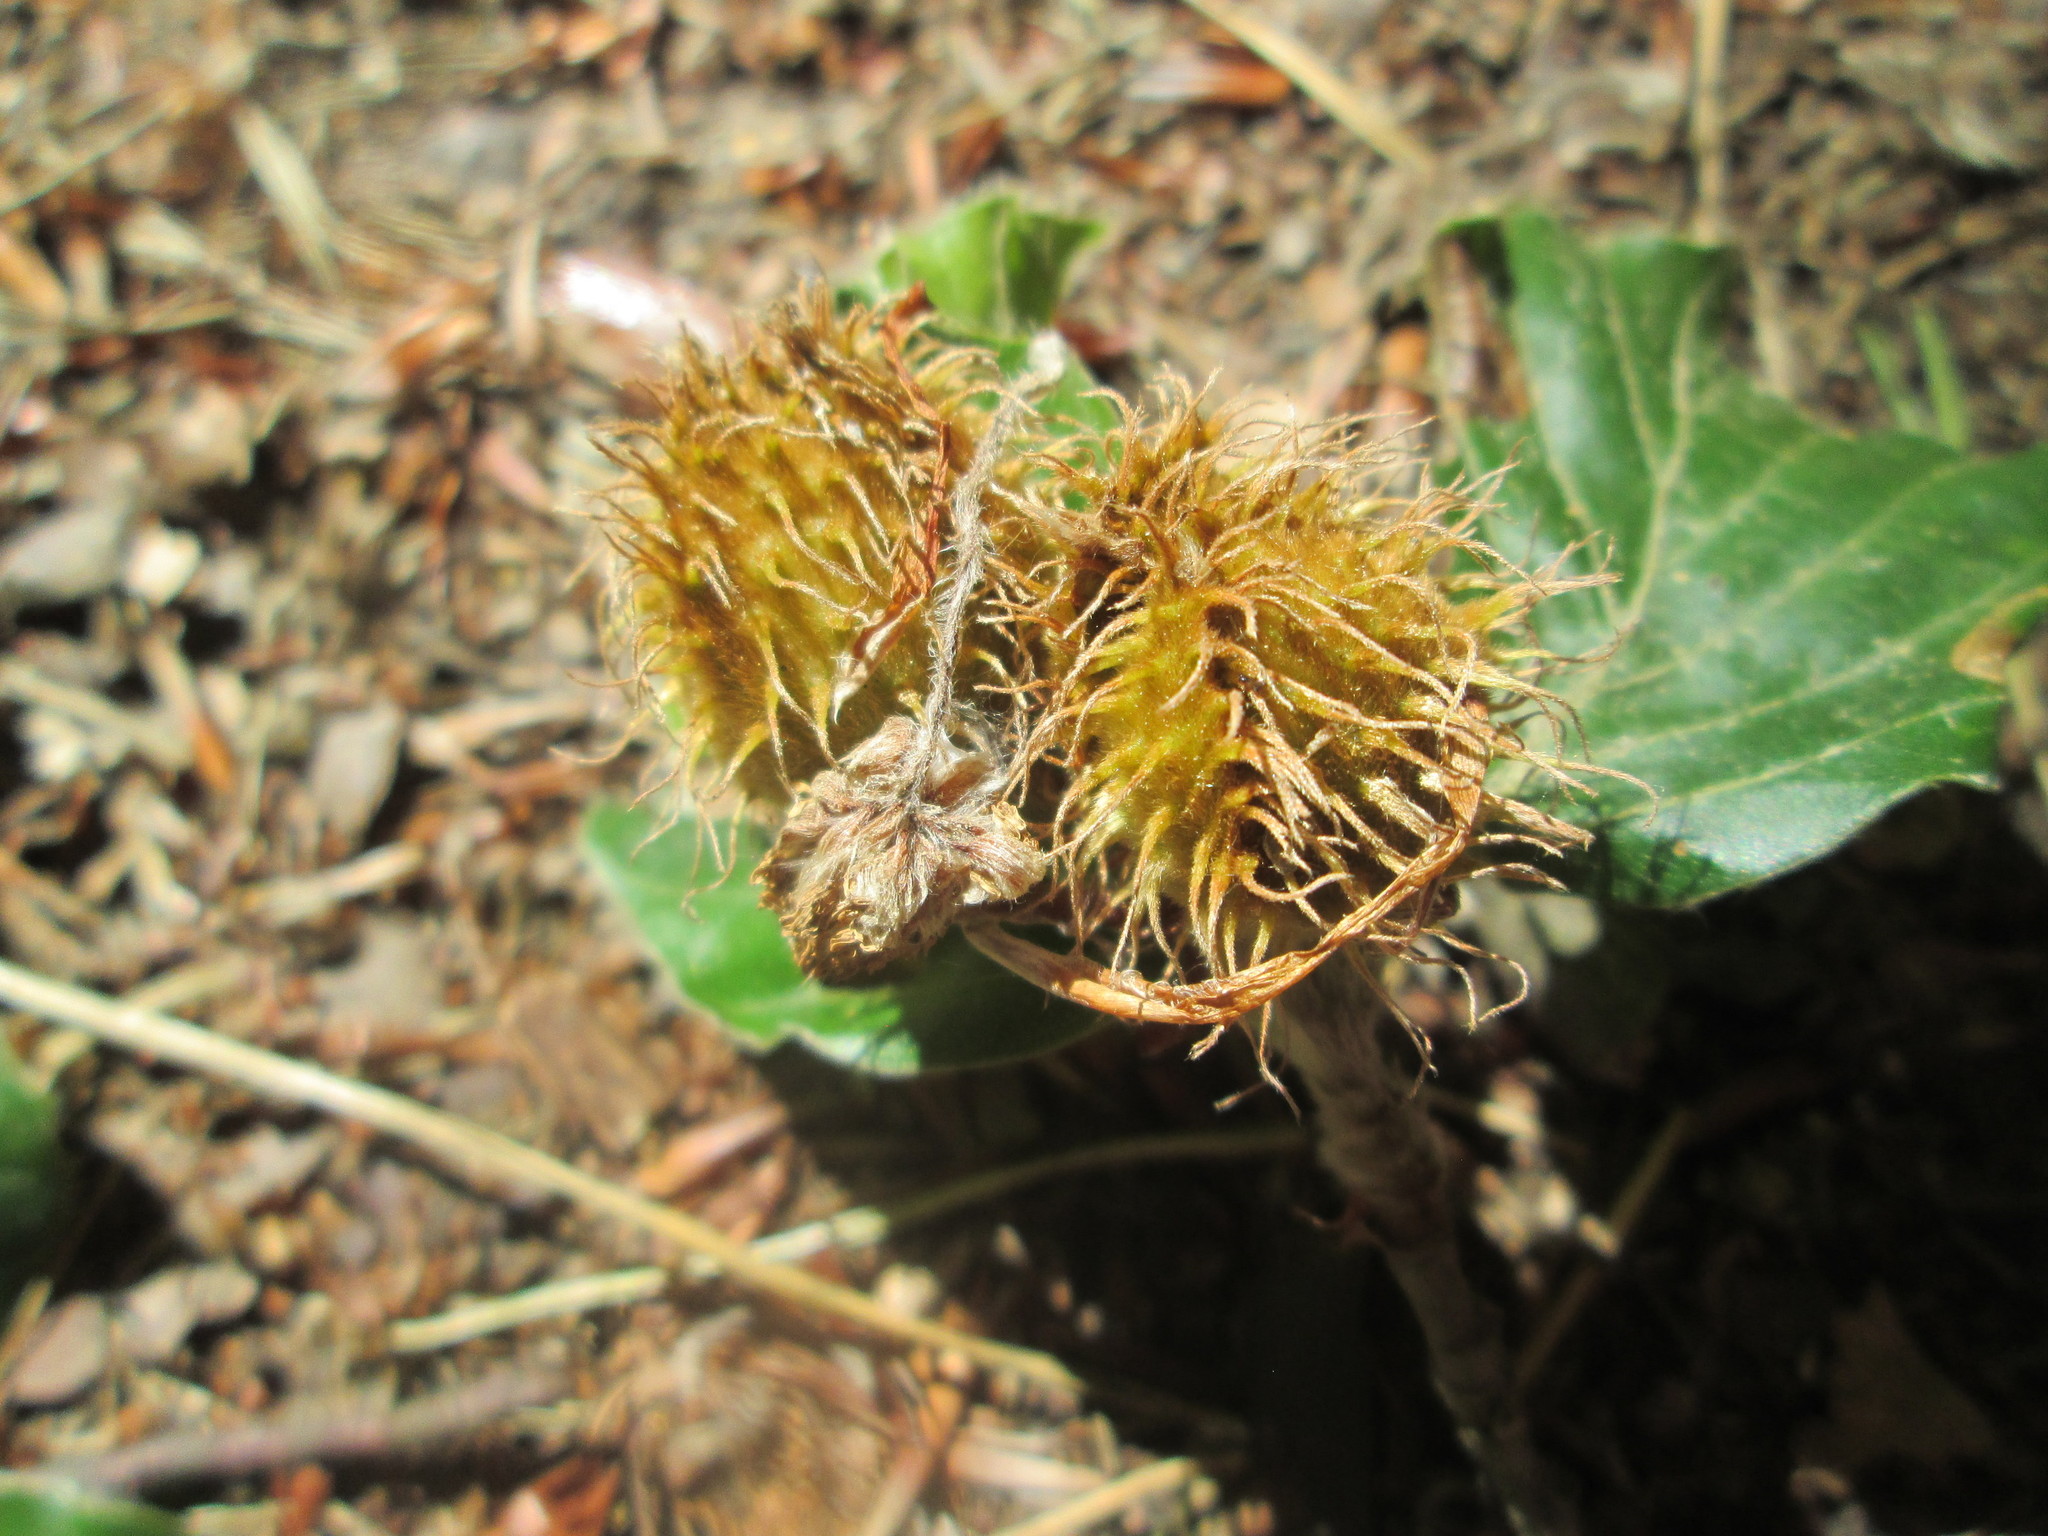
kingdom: Plantae
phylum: Tracheophyta
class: Magnoliopsida
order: Fagales
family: Fagaceae
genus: Fagus
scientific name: Fagus sylvatica
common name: Beech
